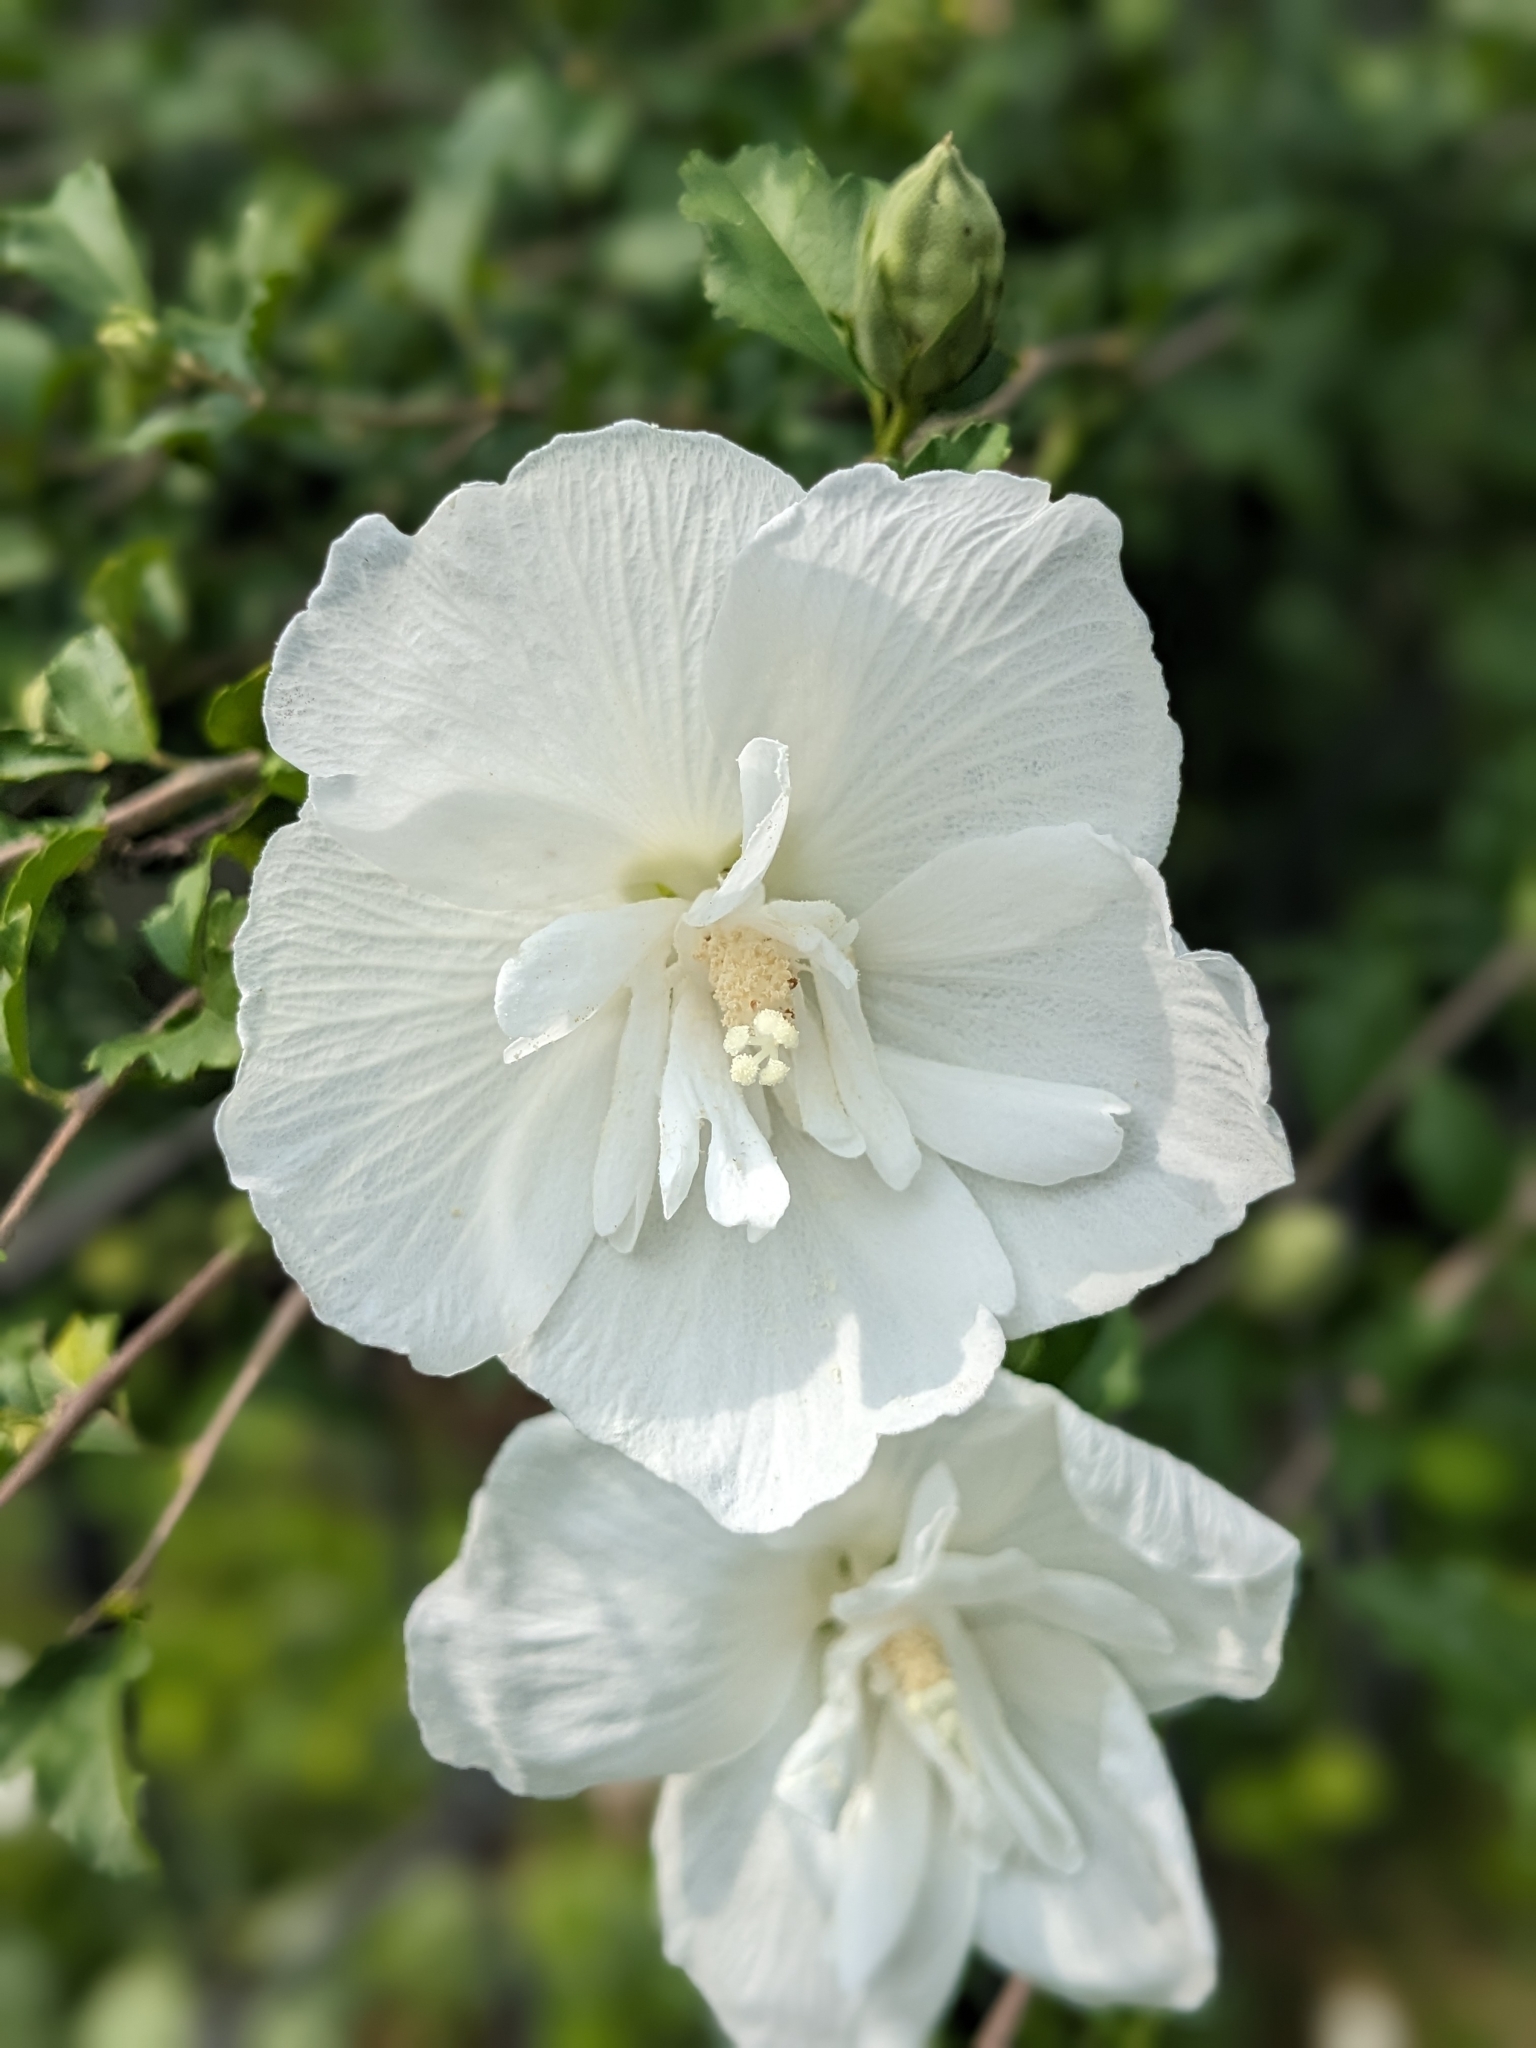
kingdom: Plantae
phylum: Tracheophyta
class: Magnoliopsida
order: Malvales
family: Malvaceae
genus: Hibiscus
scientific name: Hibiscus syriacus
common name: Syrian ketmia
